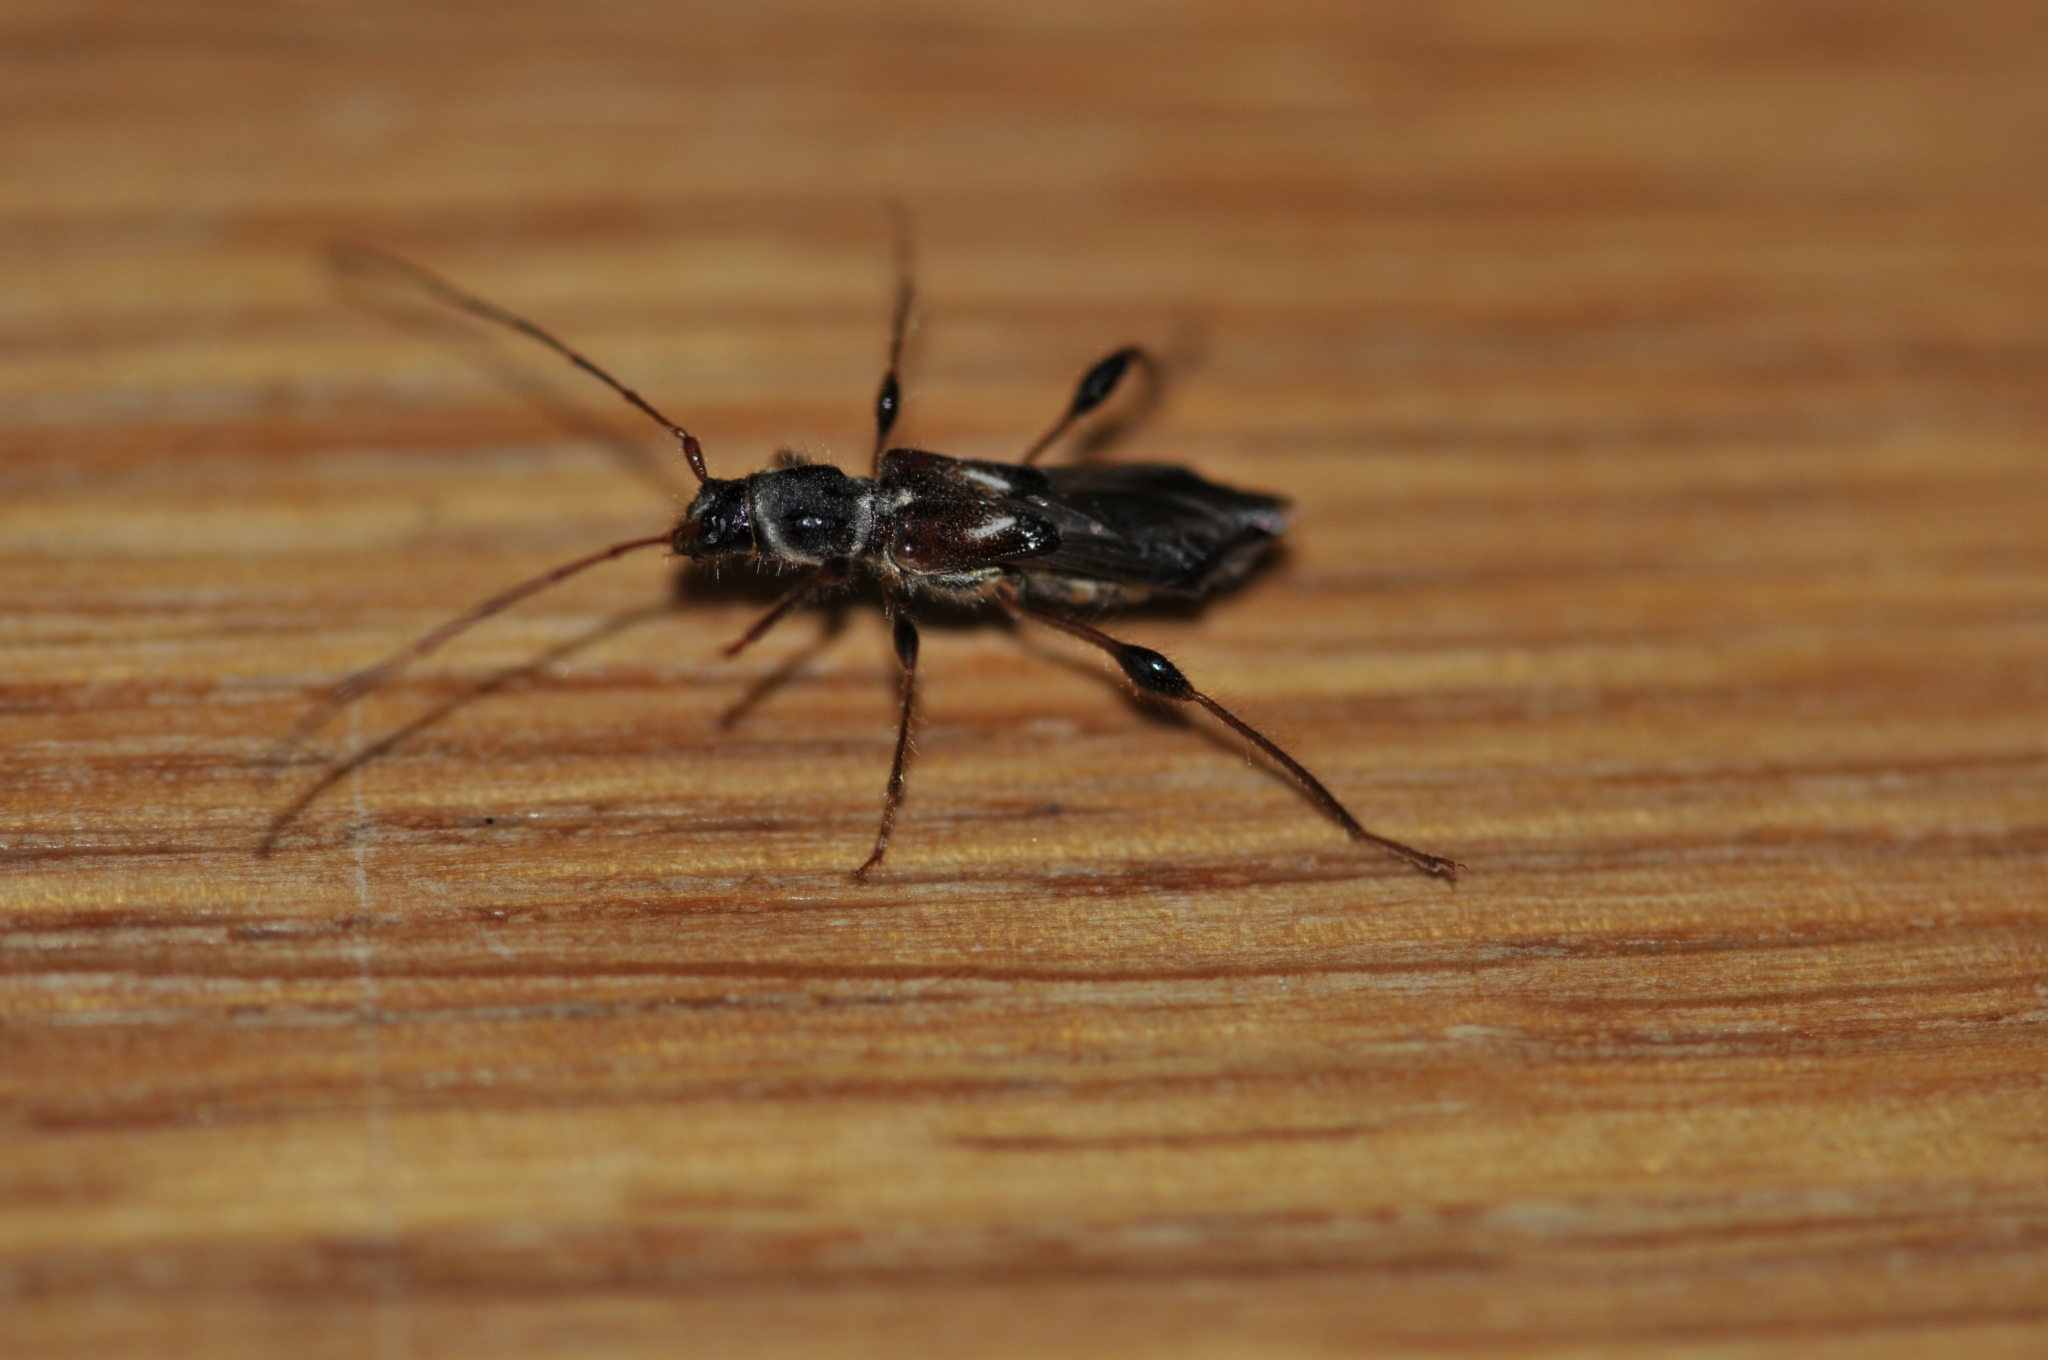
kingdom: Animalia
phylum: Arthropoda
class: Insecta
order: Coleoptera
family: Cerambycidae
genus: Molorchus
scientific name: Molorchus minor
